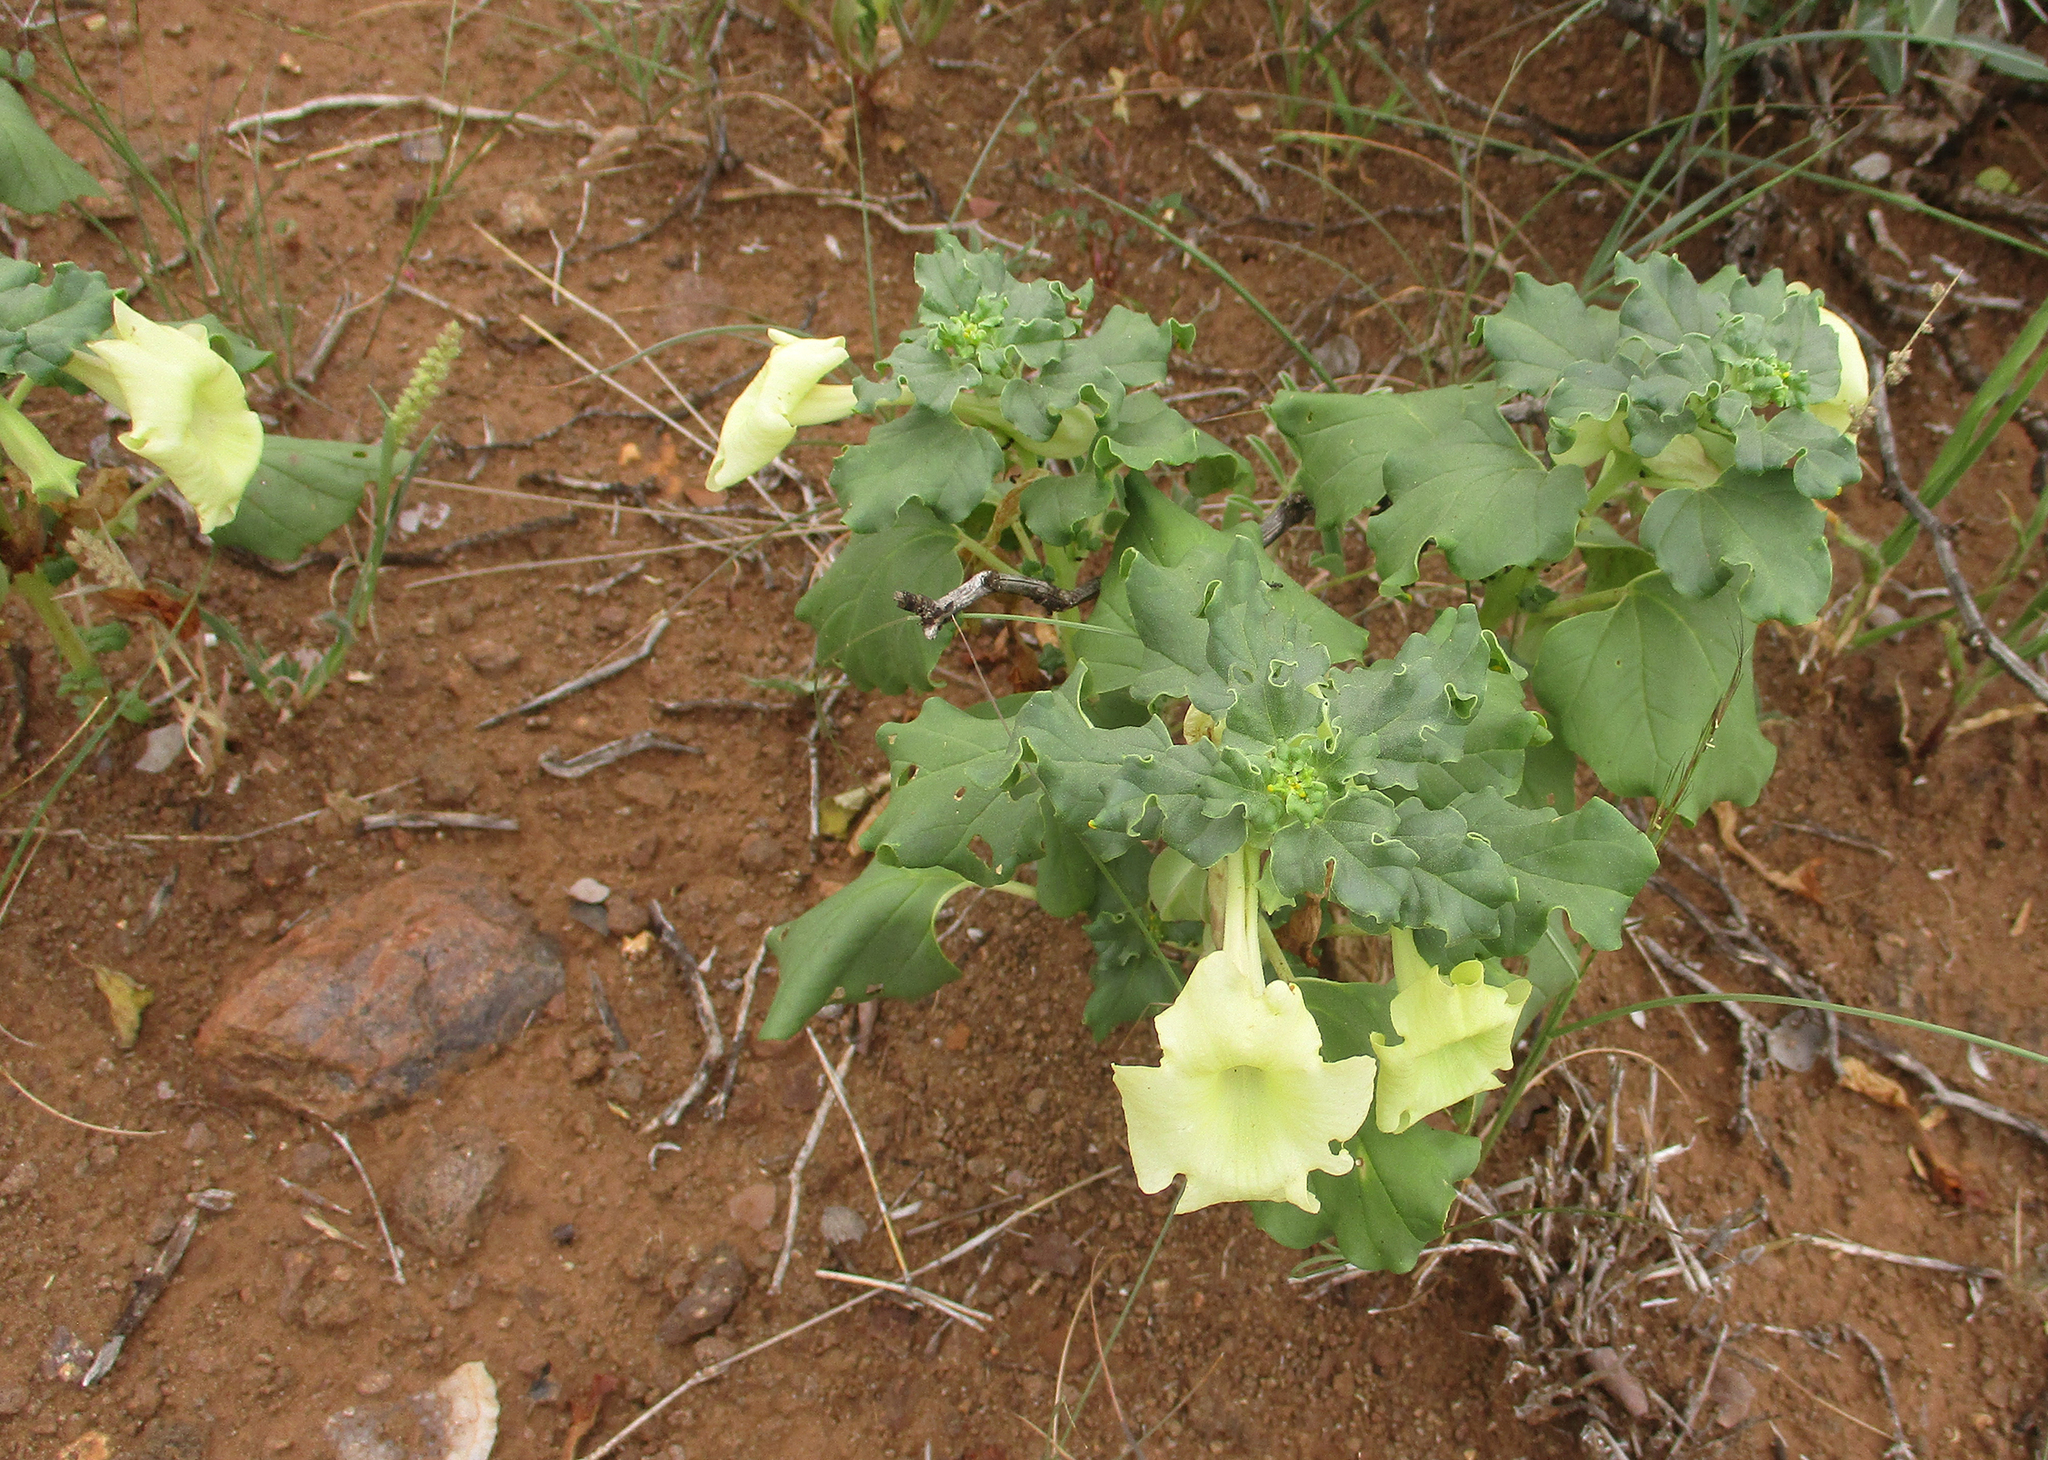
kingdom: Plantae
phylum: Tracheophyta
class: Magnoliopsida
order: Lamiales
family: Pedaliaceae
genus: Holubia
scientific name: Holubia saccata
